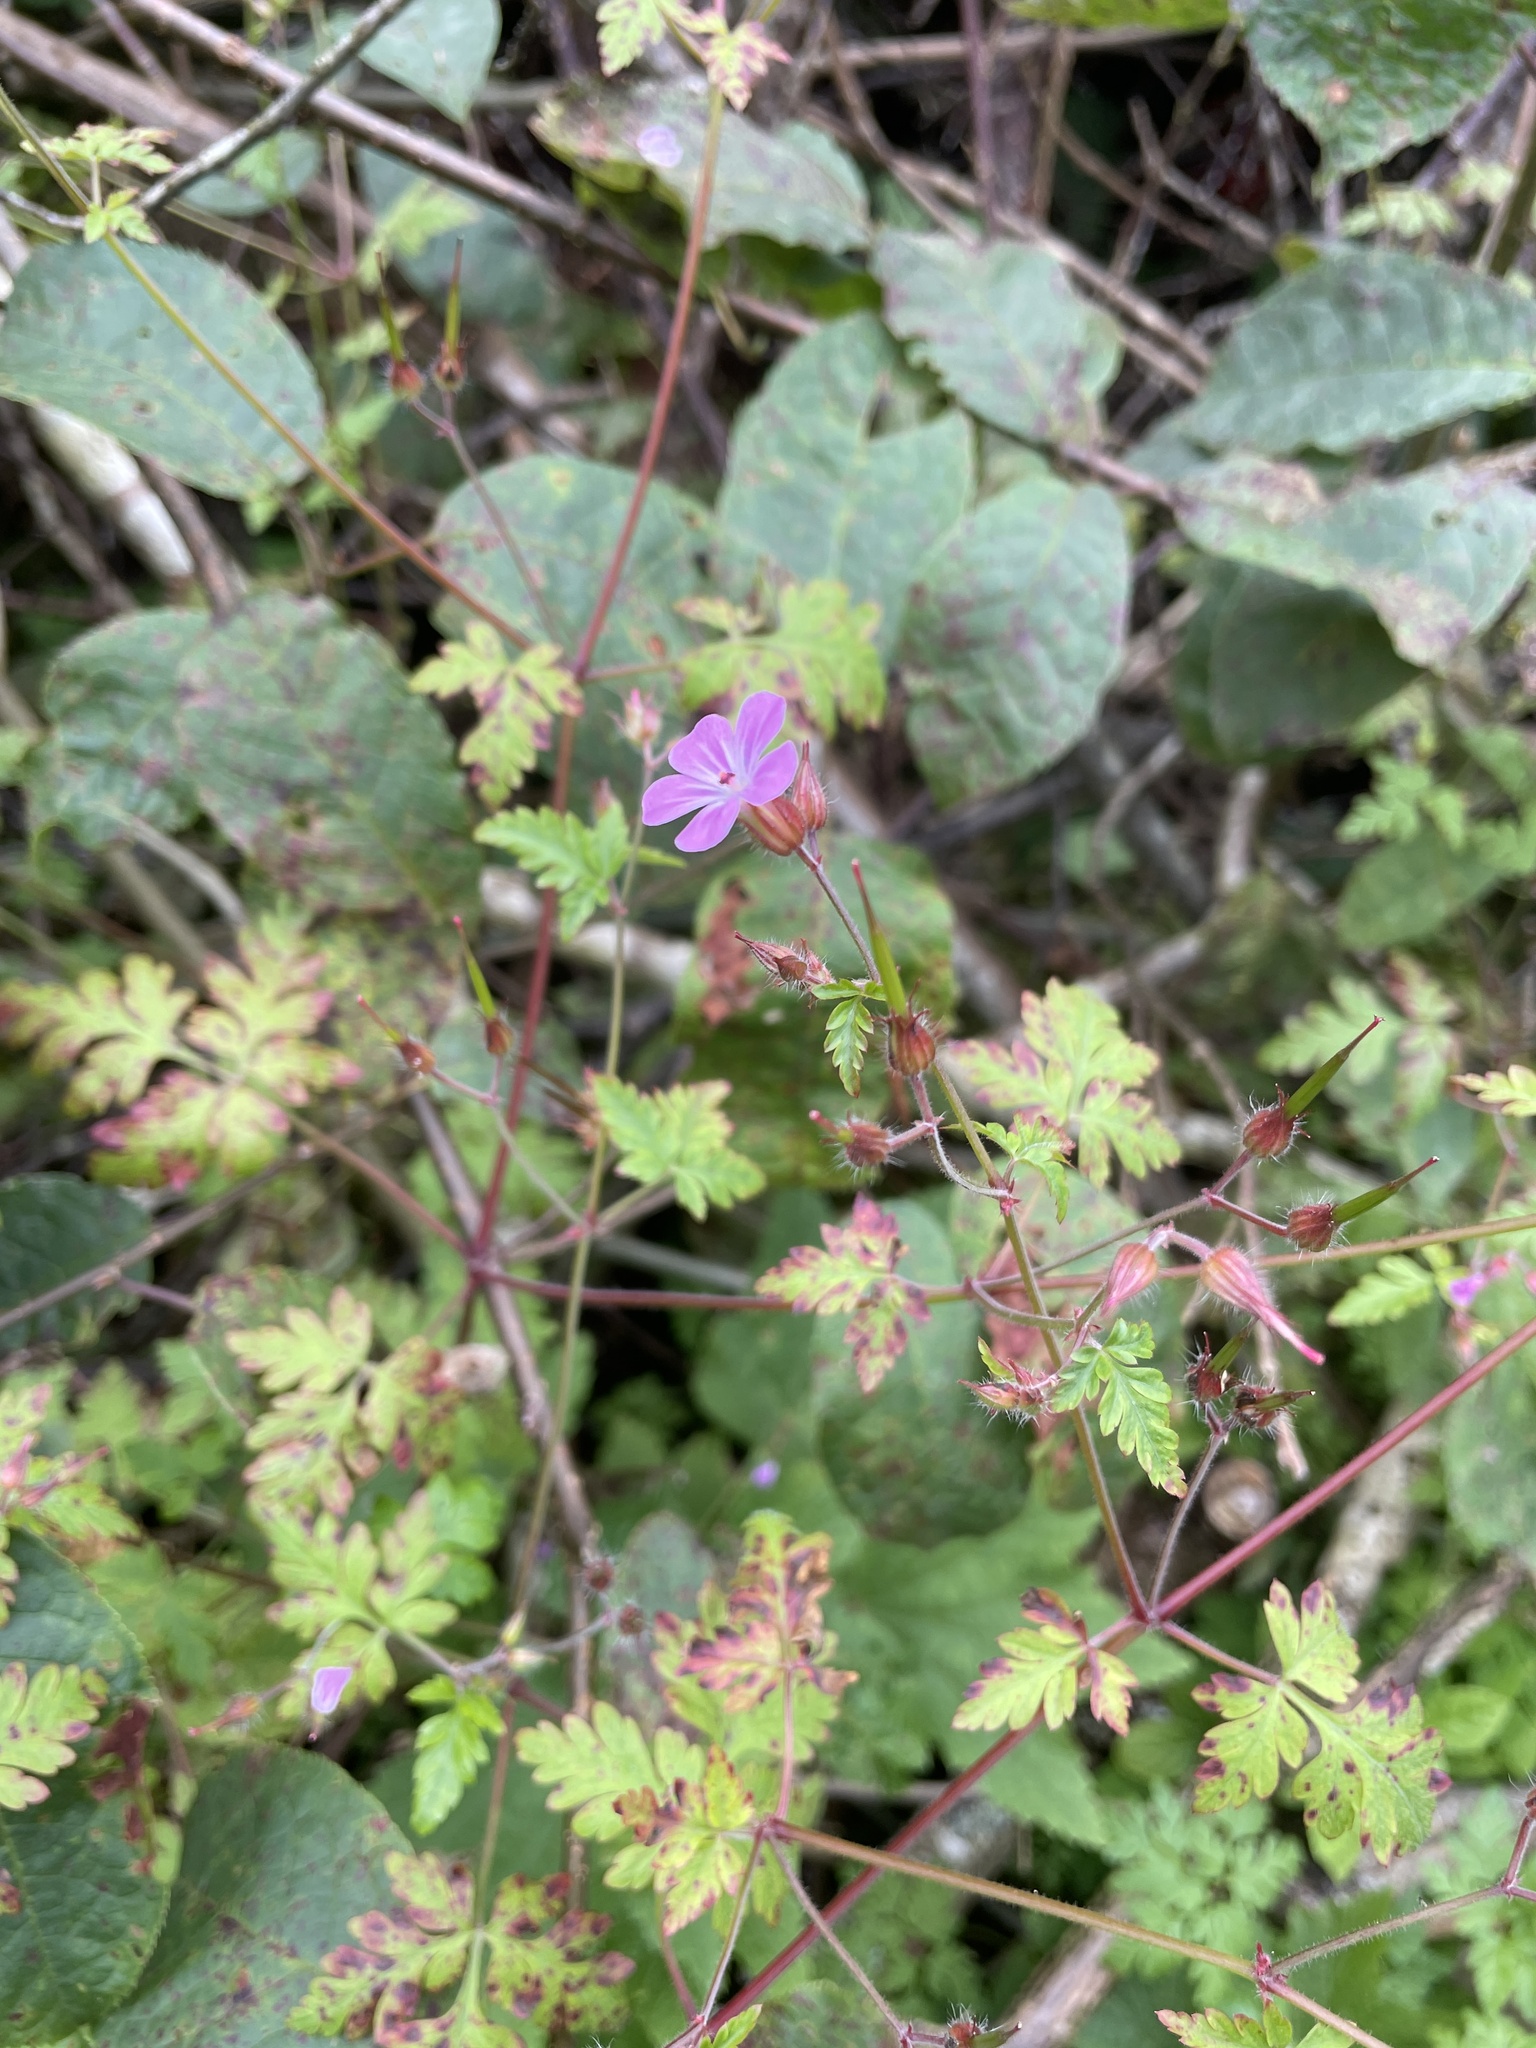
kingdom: Plantae
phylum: Tracheophyta
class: Magnoliopsida
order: Geraniales
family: Geraniaceae
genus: Geranium
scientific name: Geranium robertianum
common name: Herb-robert
